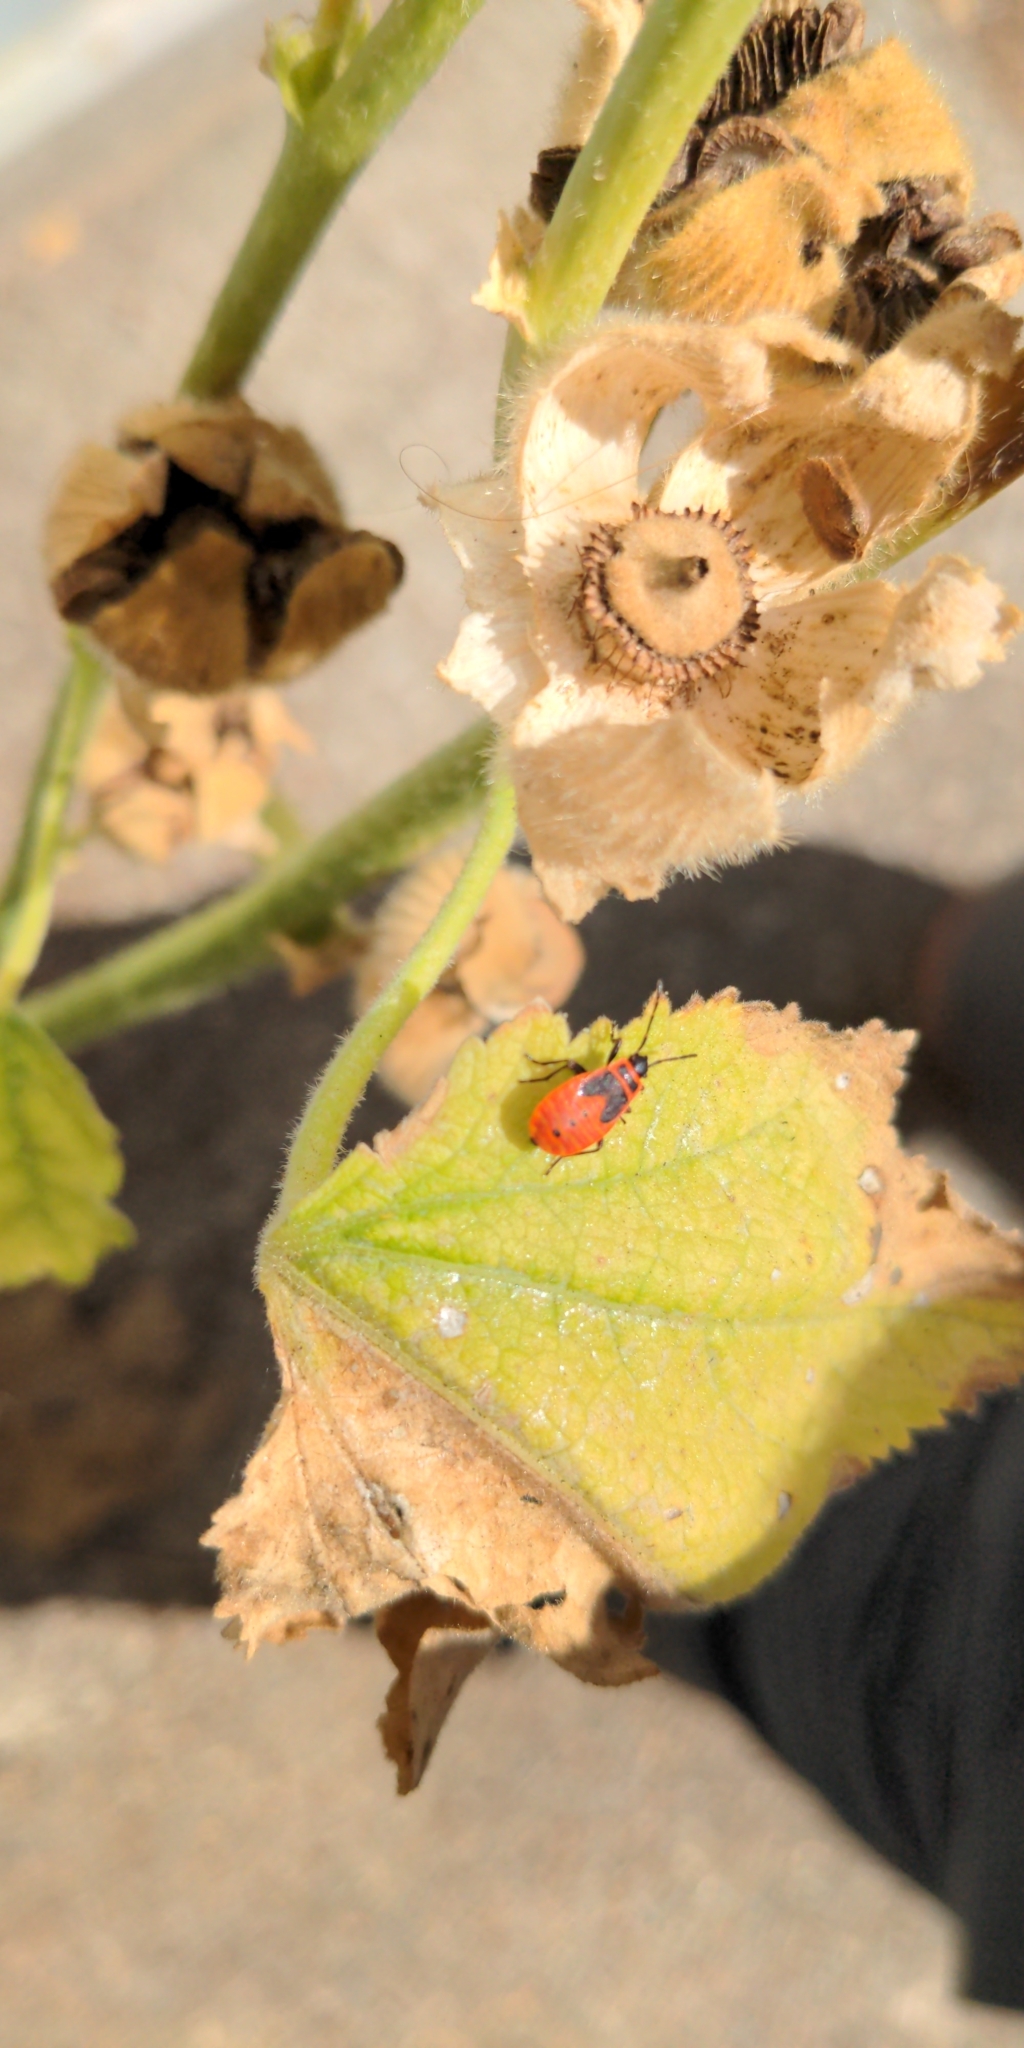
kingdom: Animalia
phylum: Arthropoda
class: Insecta
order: Hemiptera
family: Pyrrhocoridae
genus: Pyrrhocoris
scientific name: Pyrrhocoris apterus
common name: Firebug
